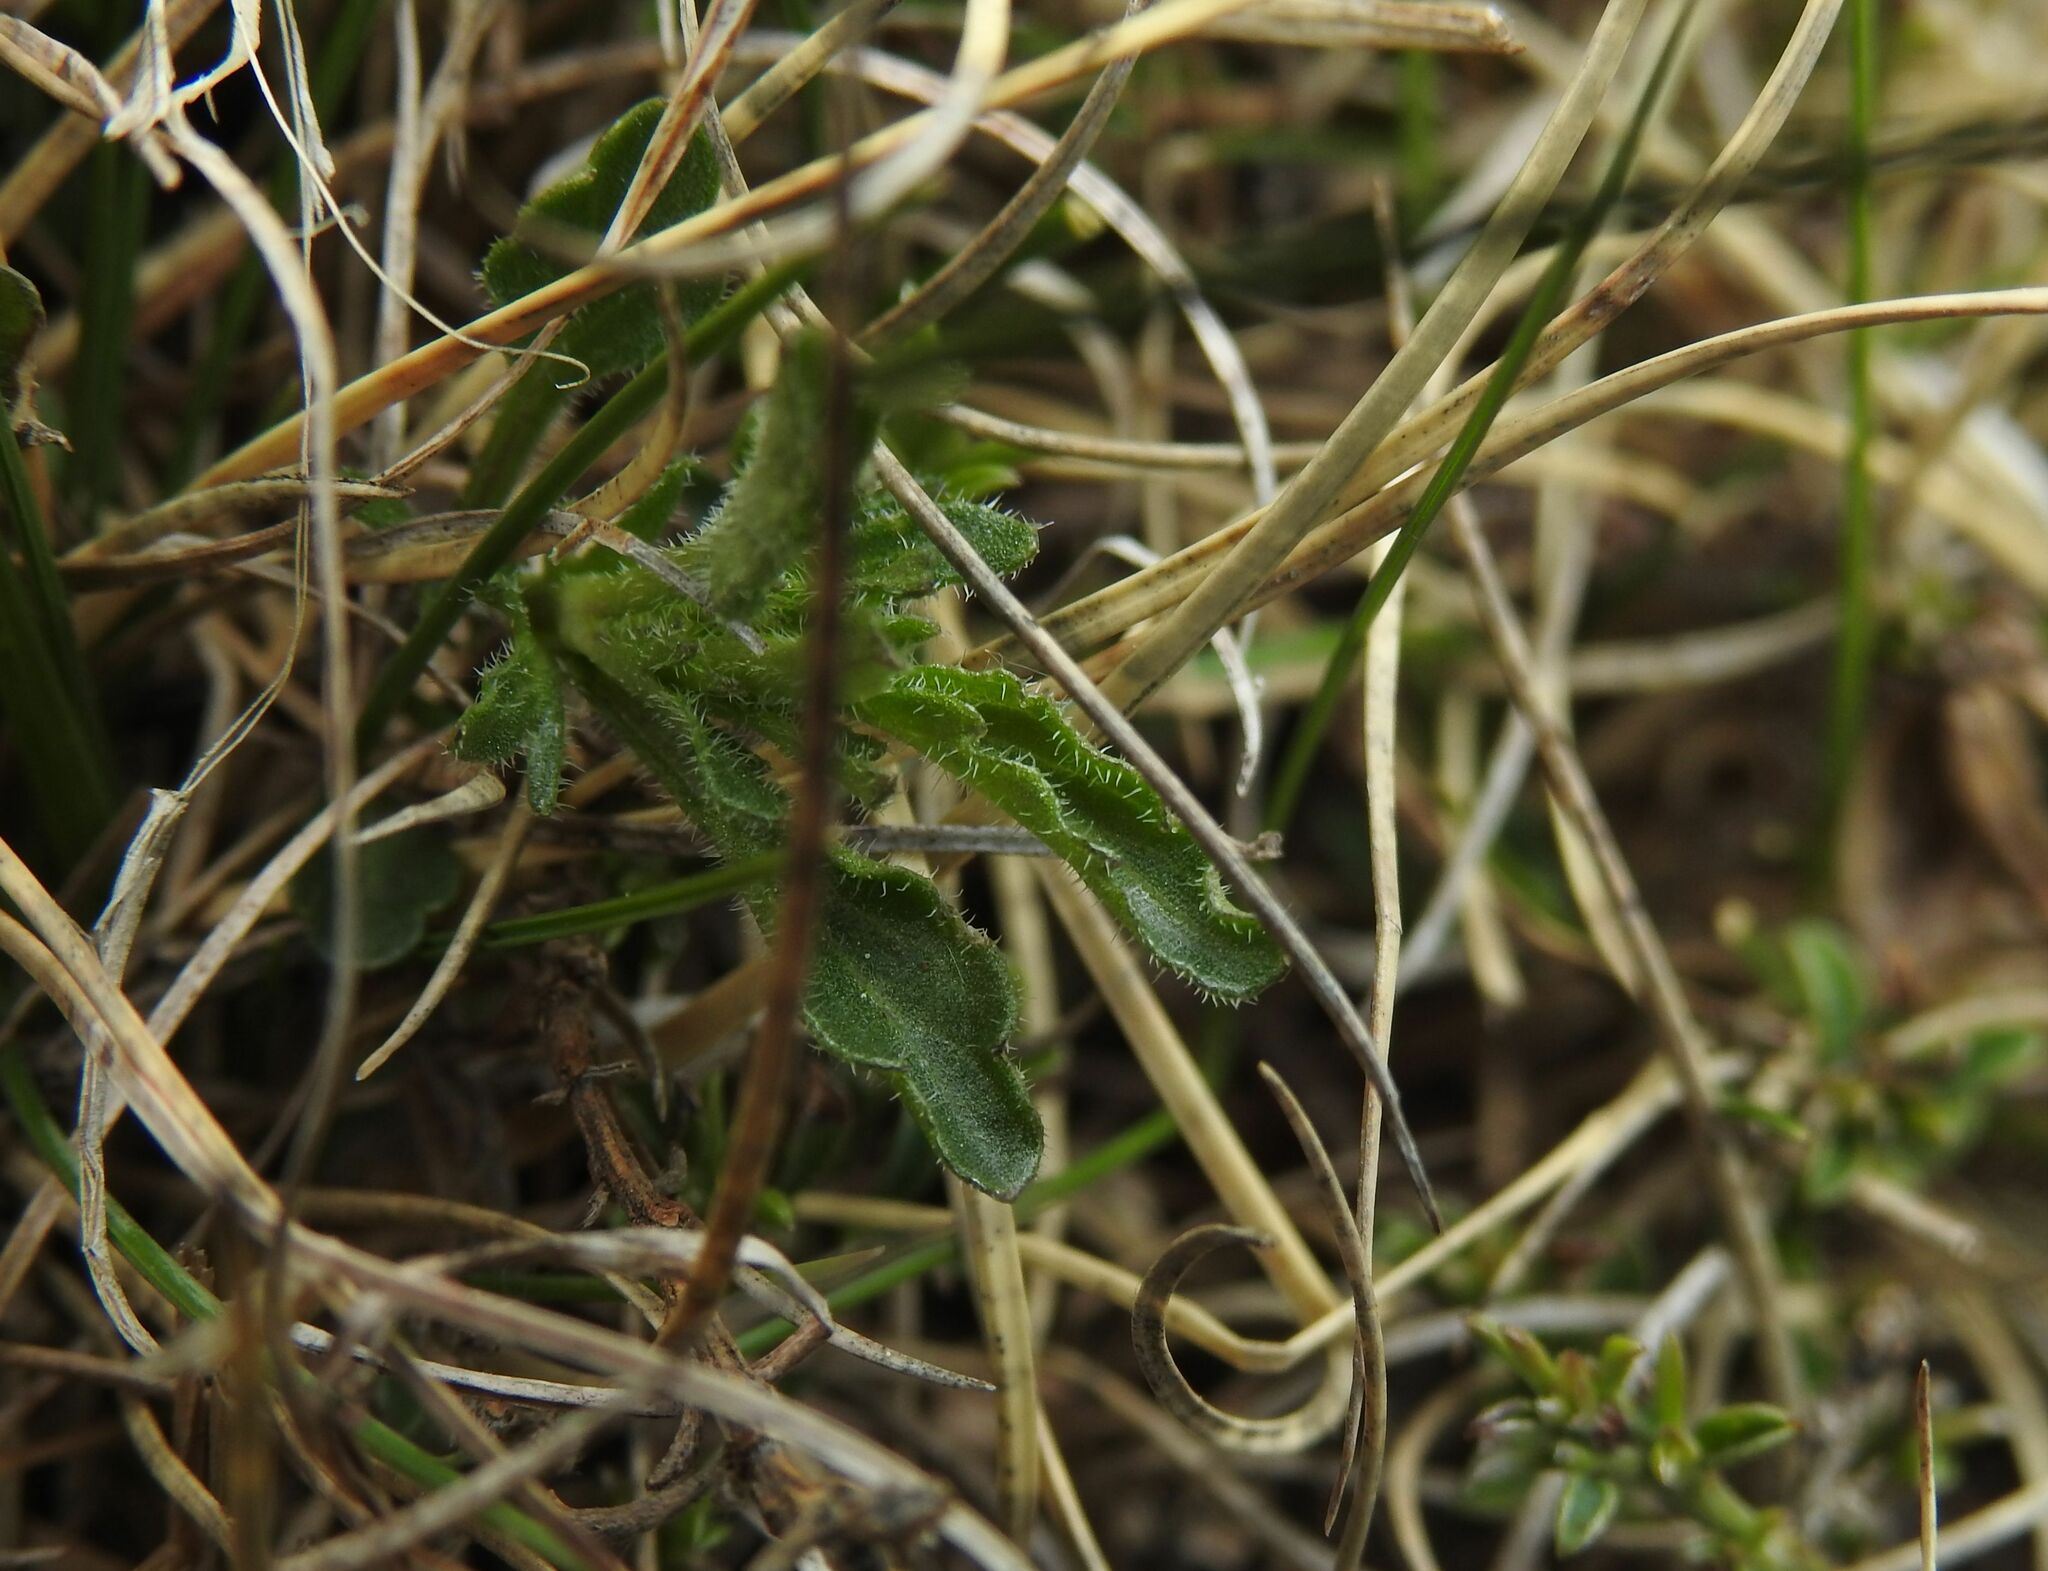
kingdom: Plantae
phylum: Tracheophyta
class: Magnoliopsida
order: Malpighiales
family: Violaceae
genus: Viola
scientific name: Viola bubanii
